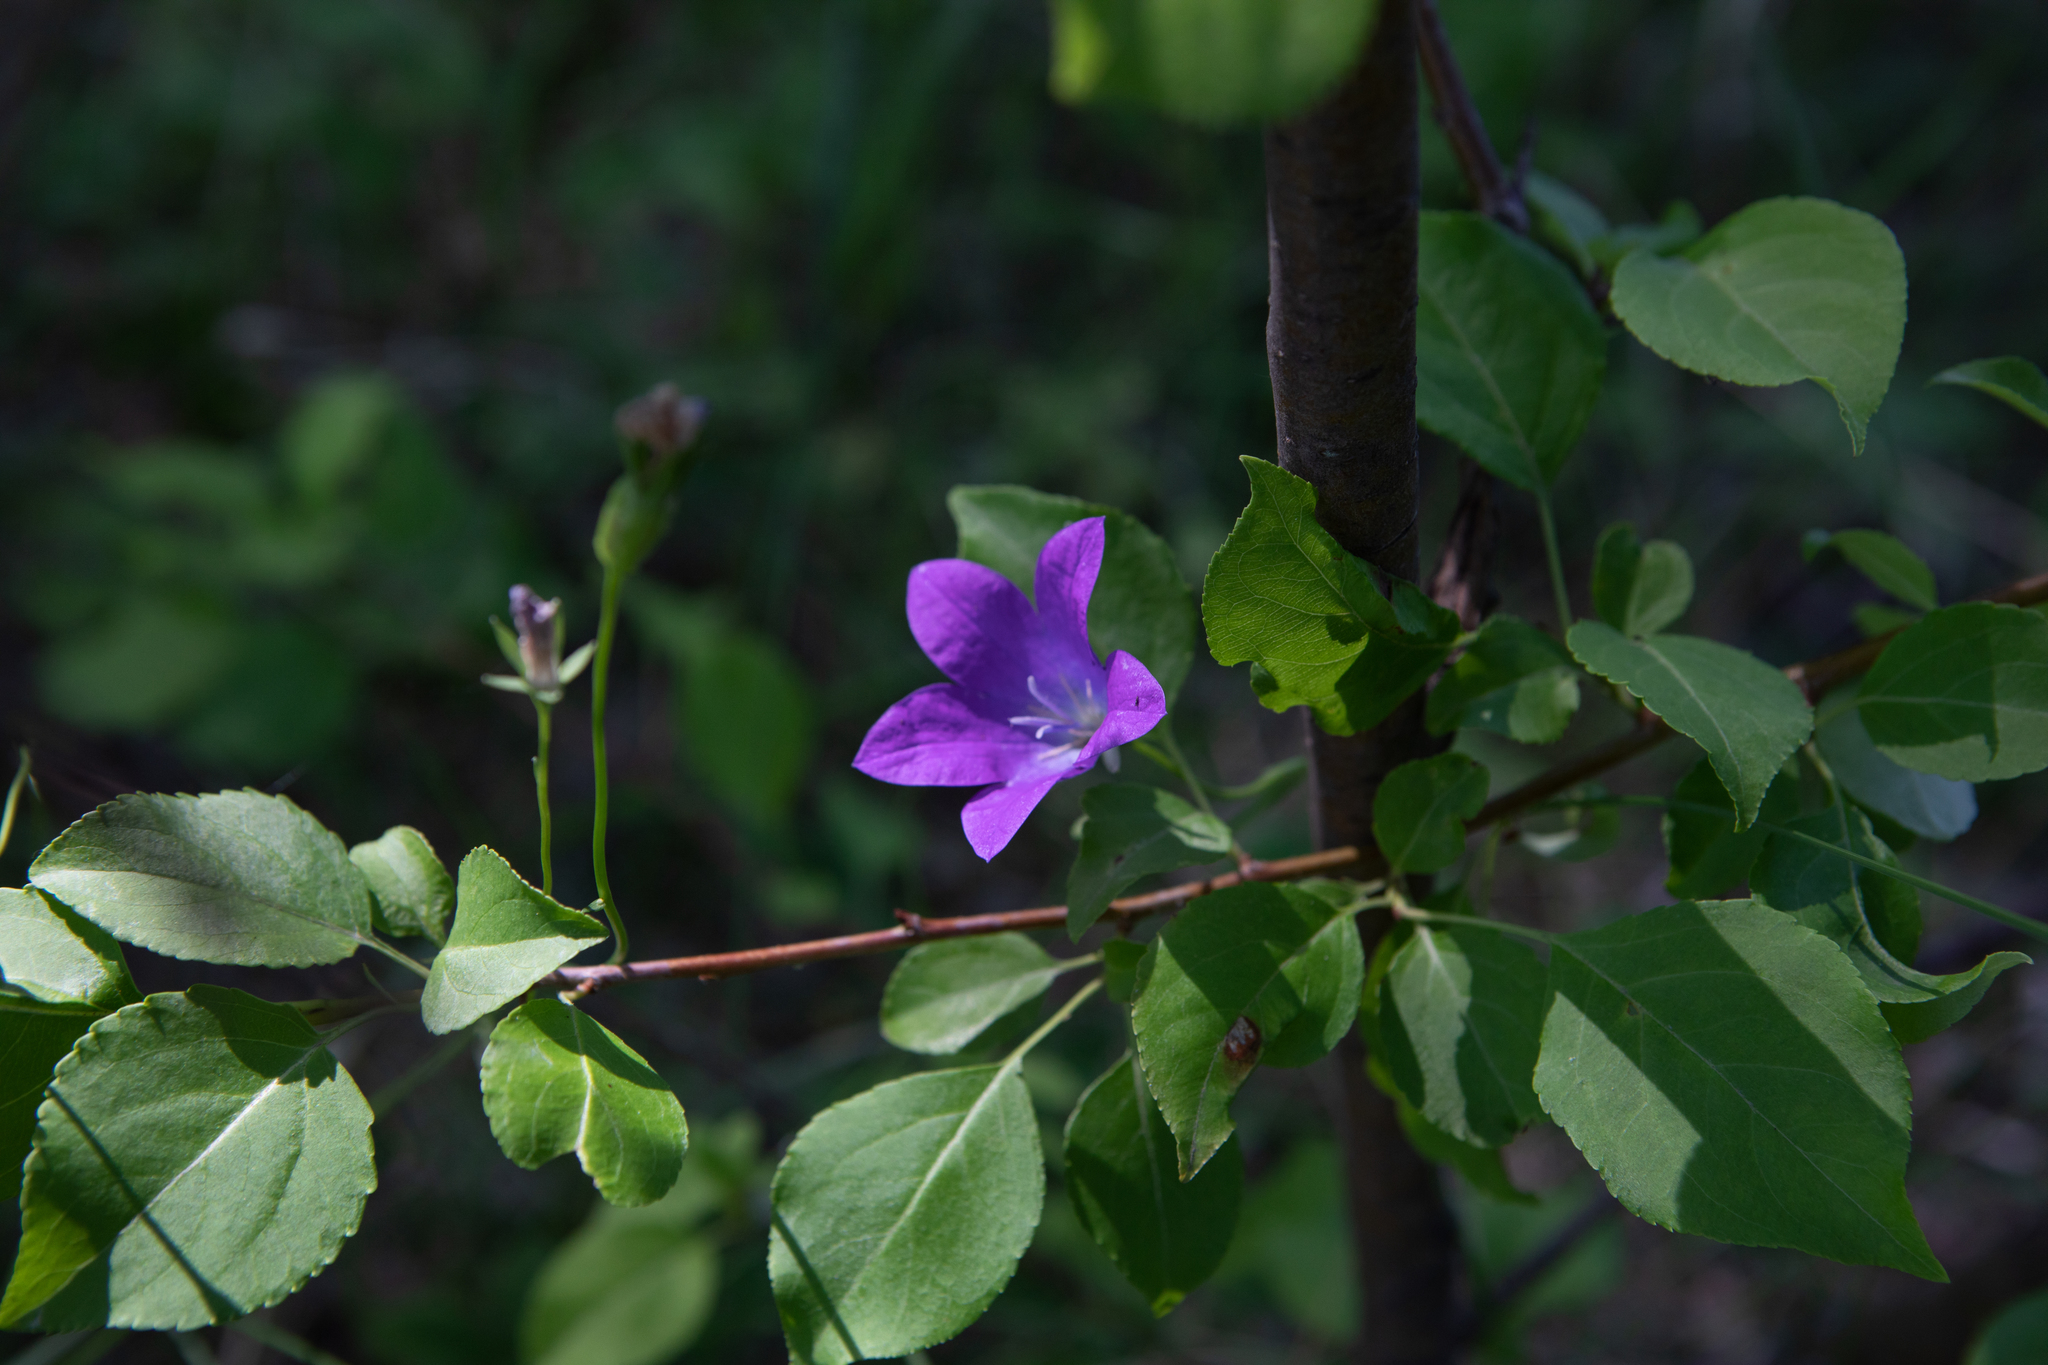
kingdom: Plantae
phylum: Tracheophyta
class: Magnoliopsida
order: Asterales
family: Campanulaceae
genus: Campanula
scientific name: Campanula stevenii
